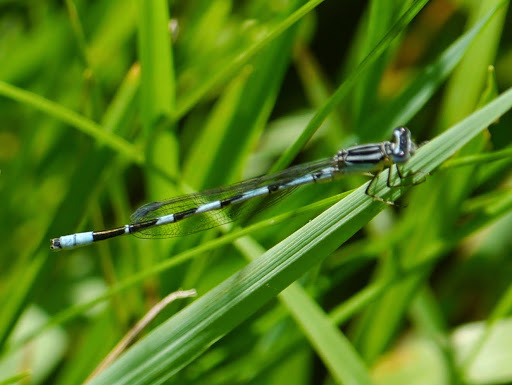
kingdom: Animalia
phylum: Arthropoda
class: Insecta
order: Odonata
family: Coenagrionidae
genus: Enallagma
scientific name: Enallagma durum
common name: Big bluet
